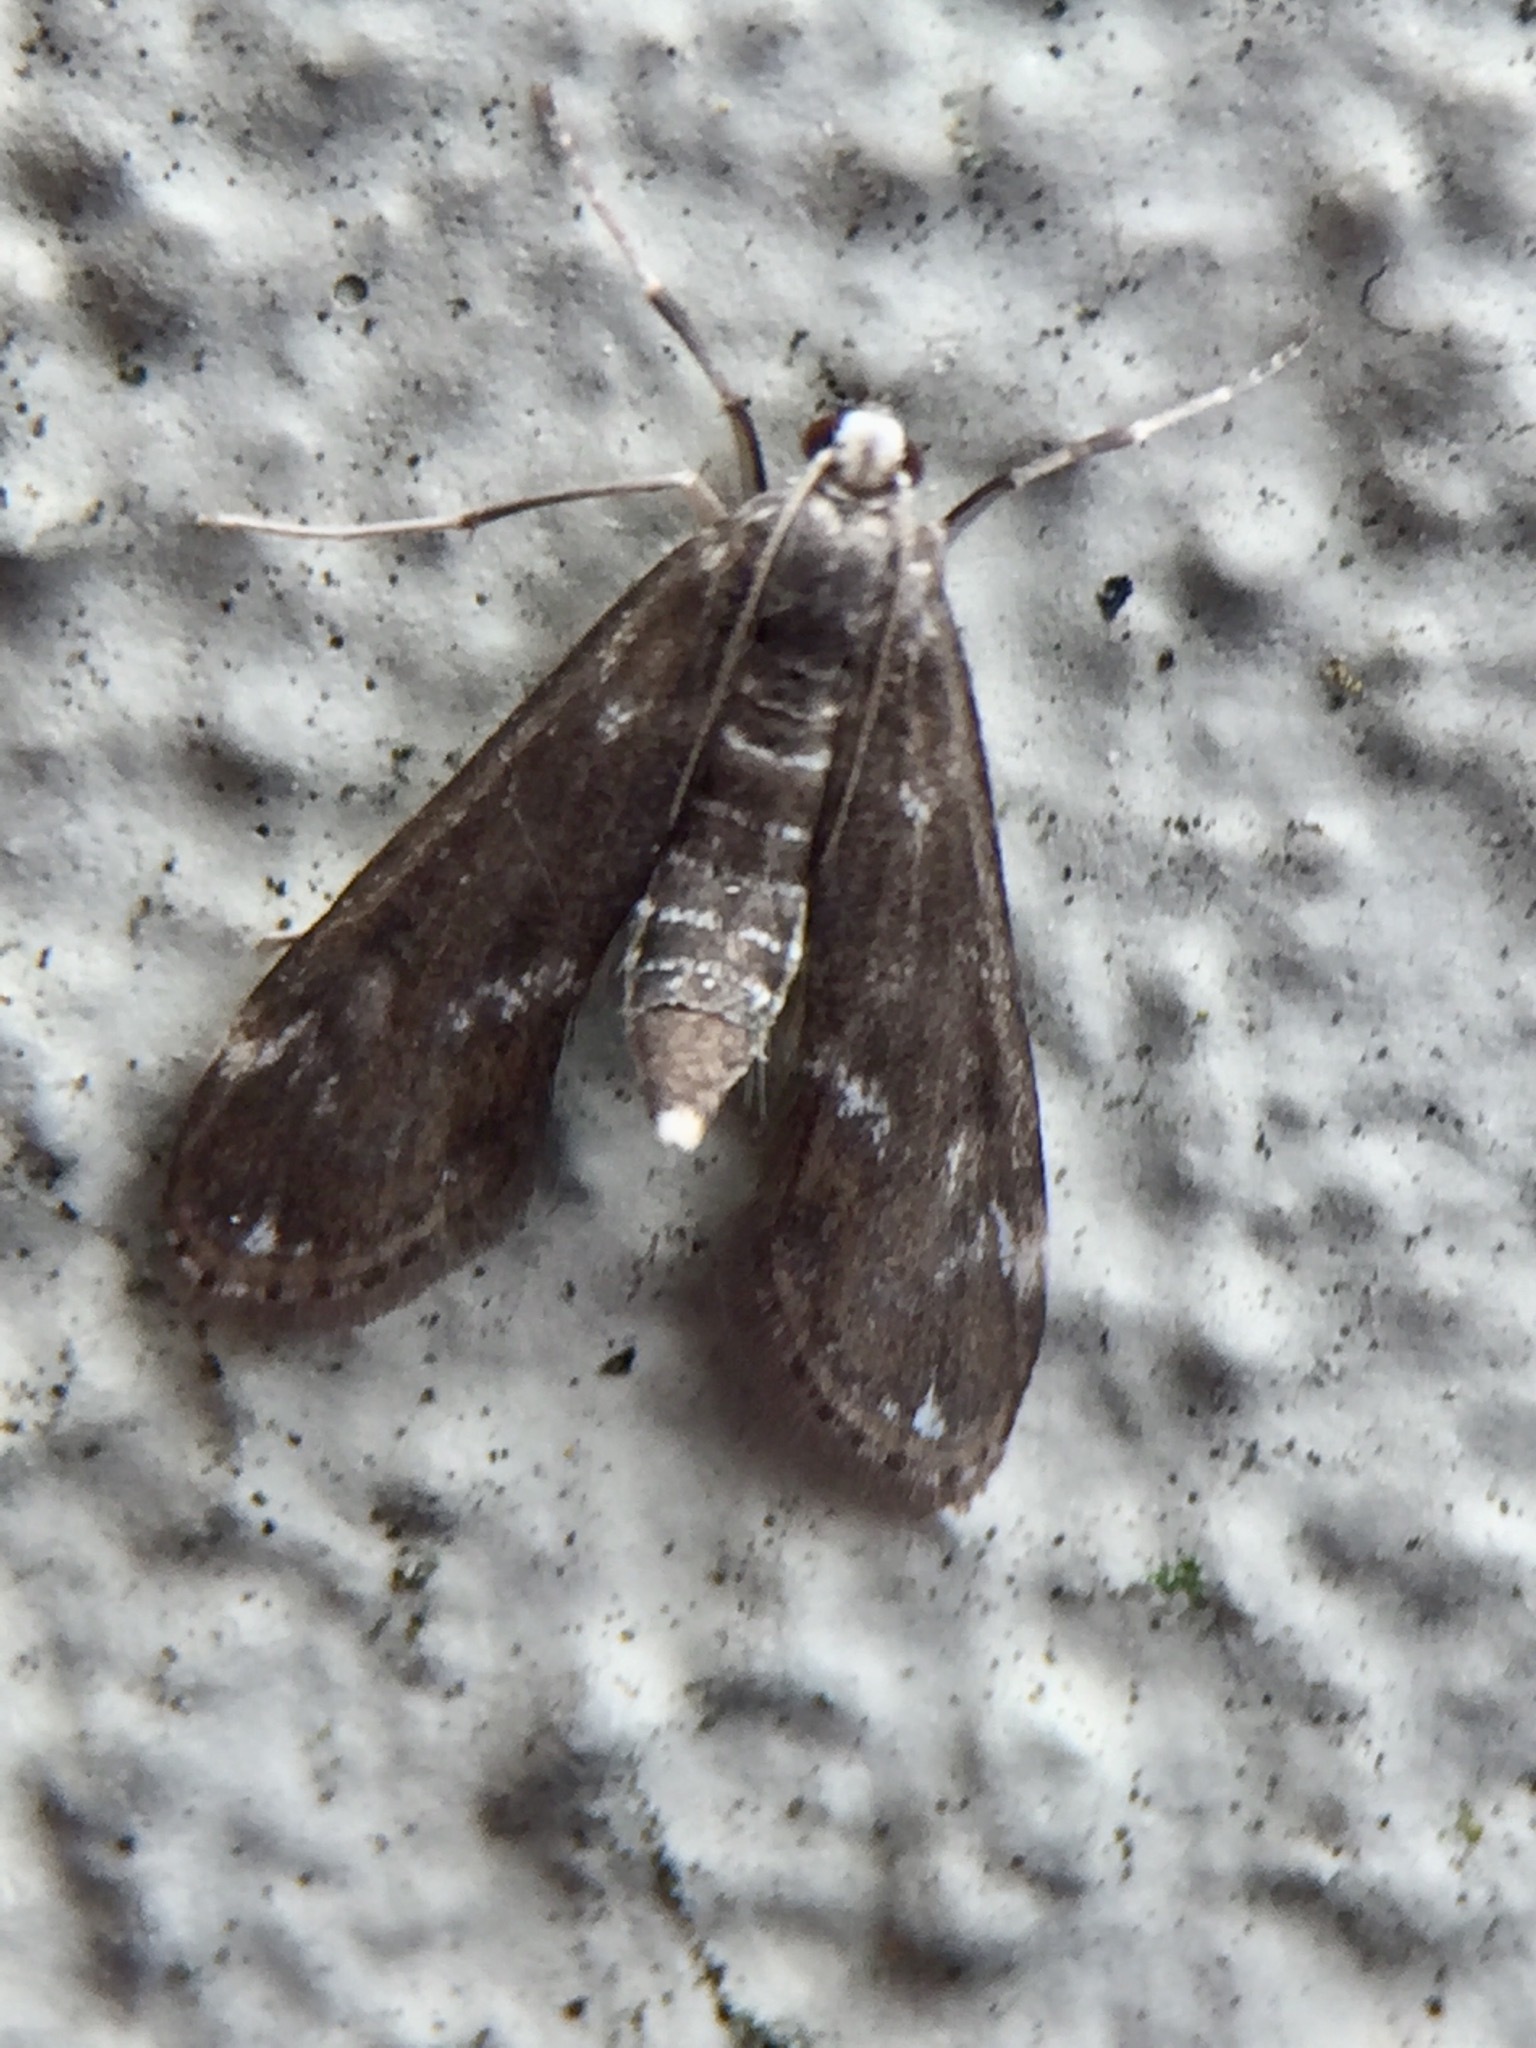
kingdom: Animalia
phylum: Arthropoda
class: Insecta
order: Lepidoptera
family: Crambidae
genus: Hygraula
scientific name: Hygraula nitens
